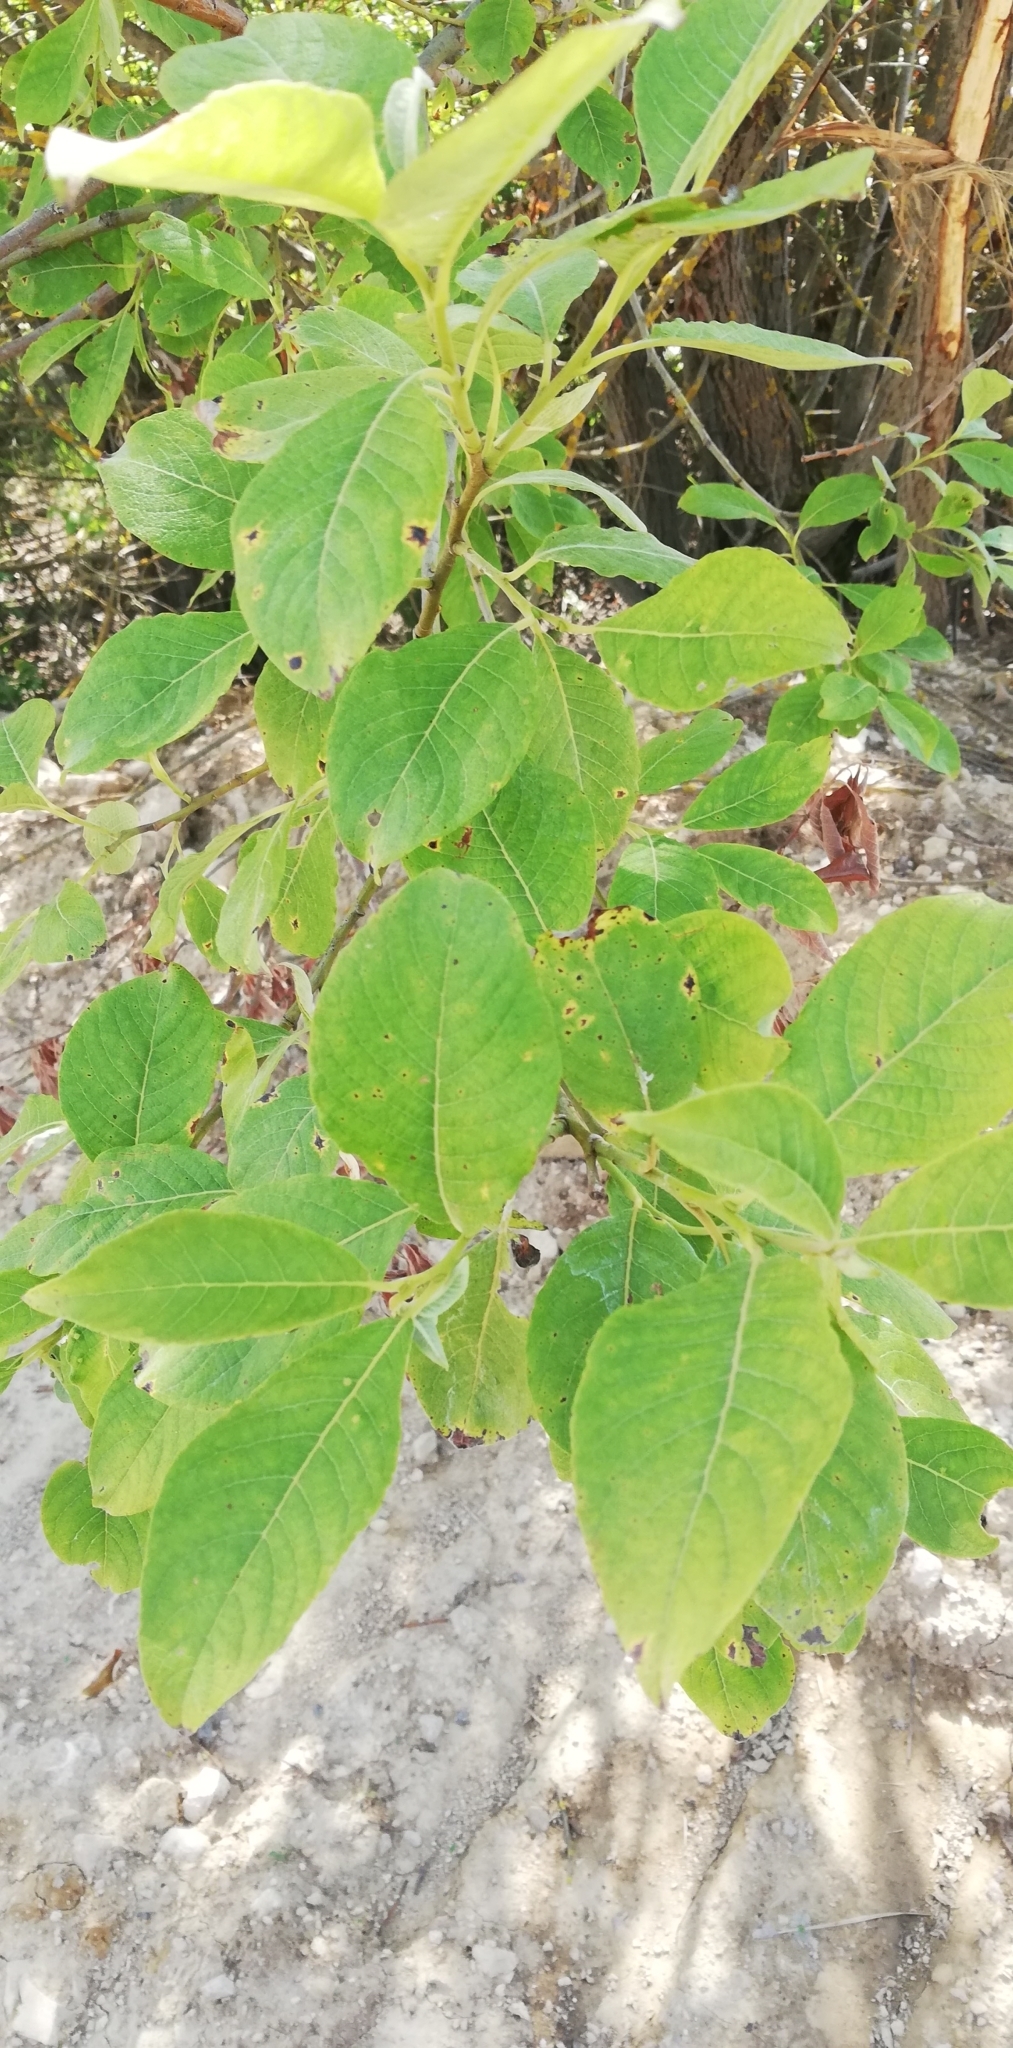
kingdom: Plantae
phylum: Tracheophyta
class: Magnoliopsida
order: Malpighiales
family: Salicaceae
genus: Salix
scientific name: Salix caprea
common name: Goat willow
